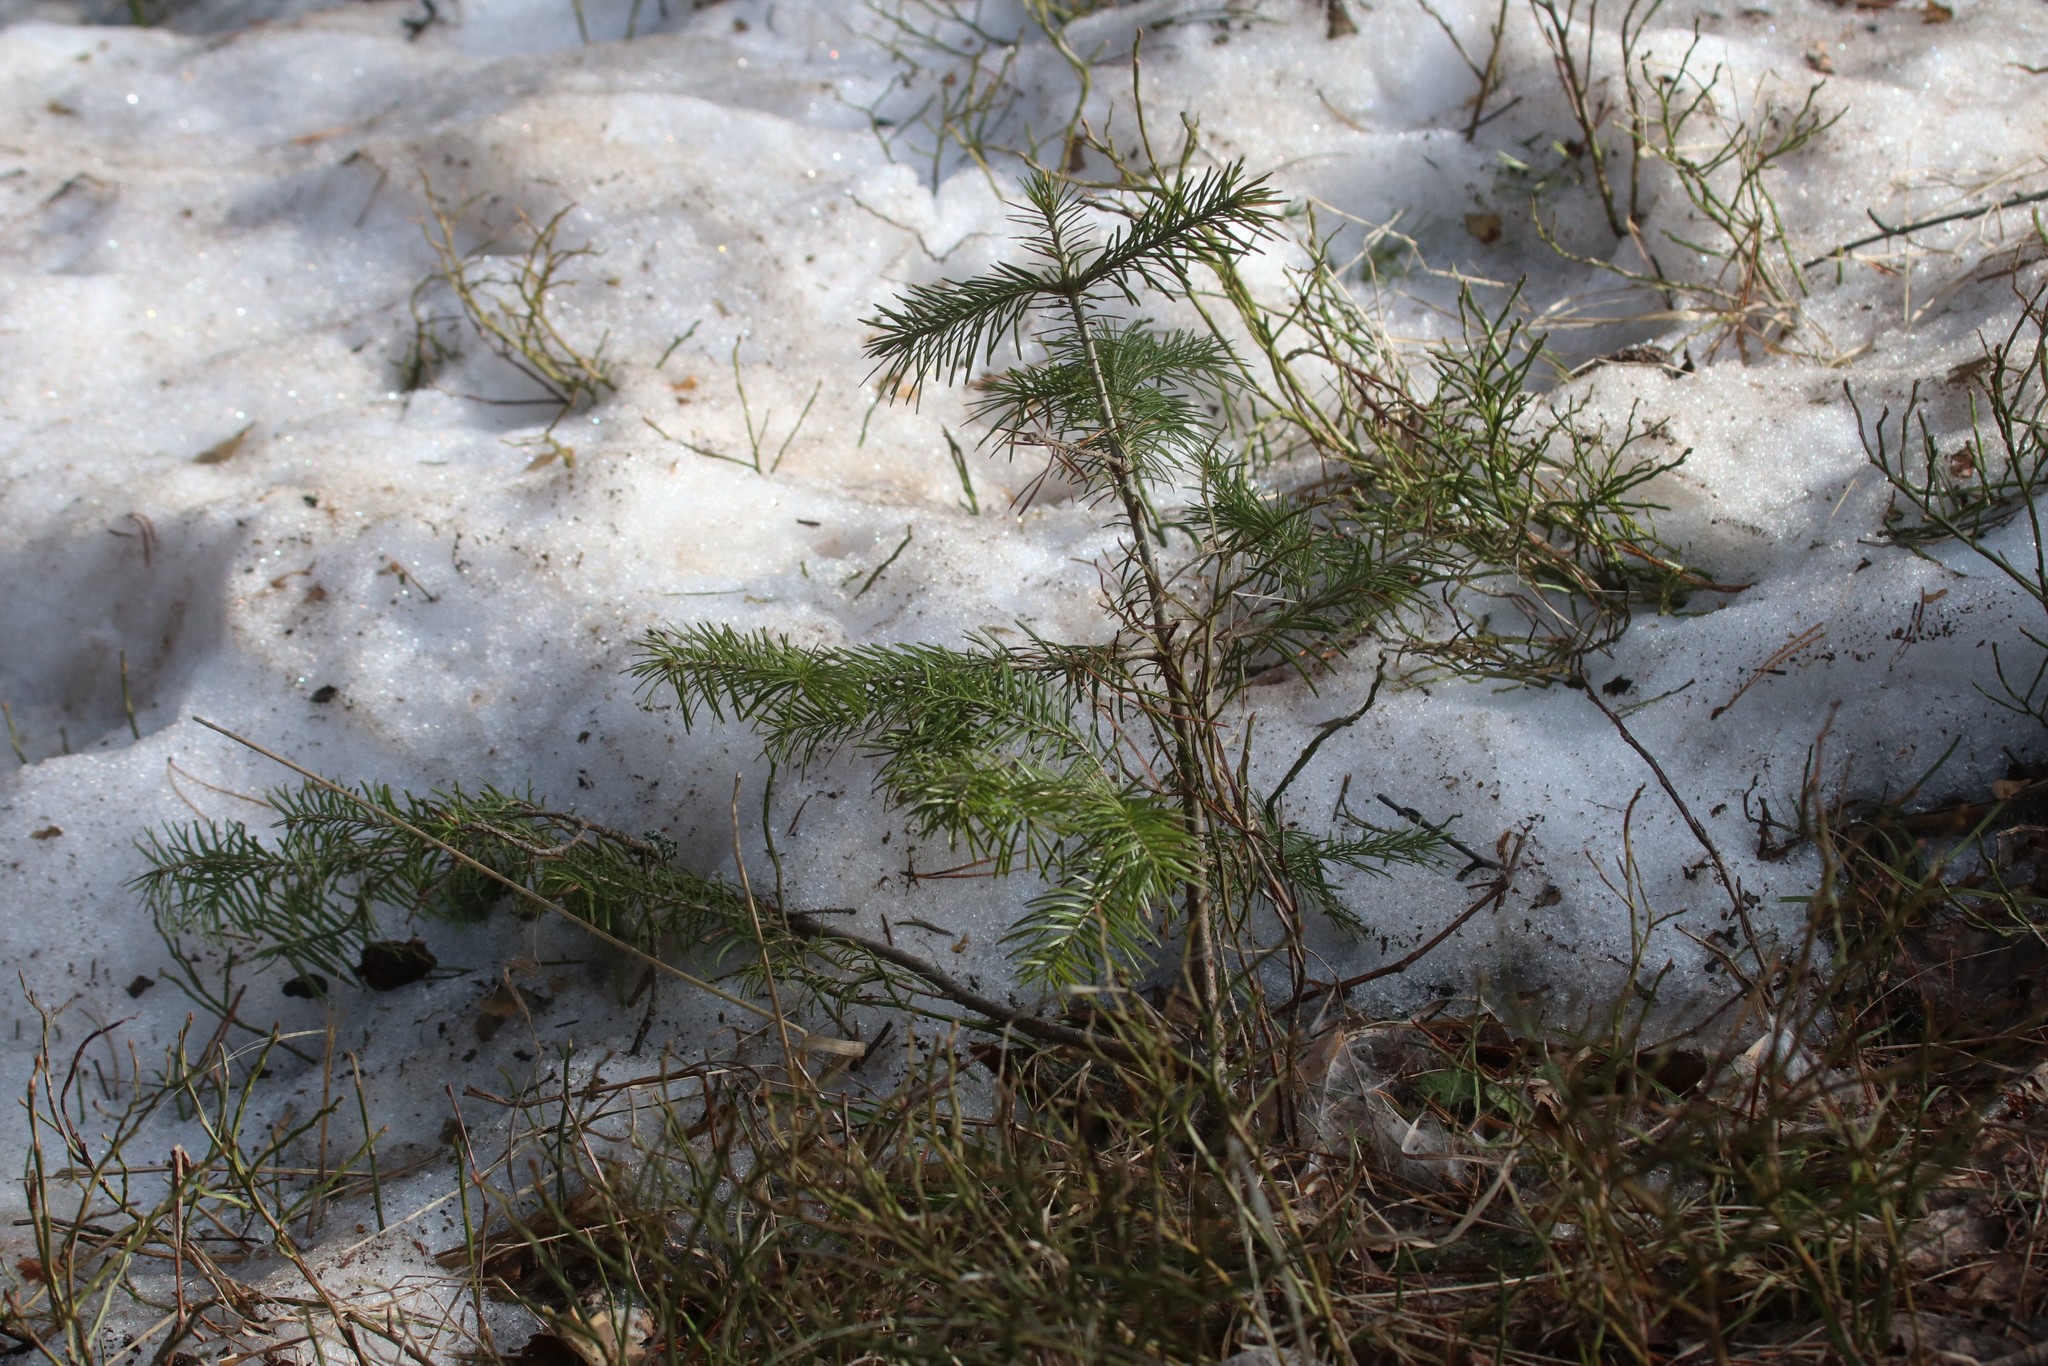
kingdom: Plantae
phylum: Tracheophyta
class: Pinopsida
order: Pinales
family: Pinaceae
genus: Abies
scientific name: Abies sibirica
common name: Siberian fir
